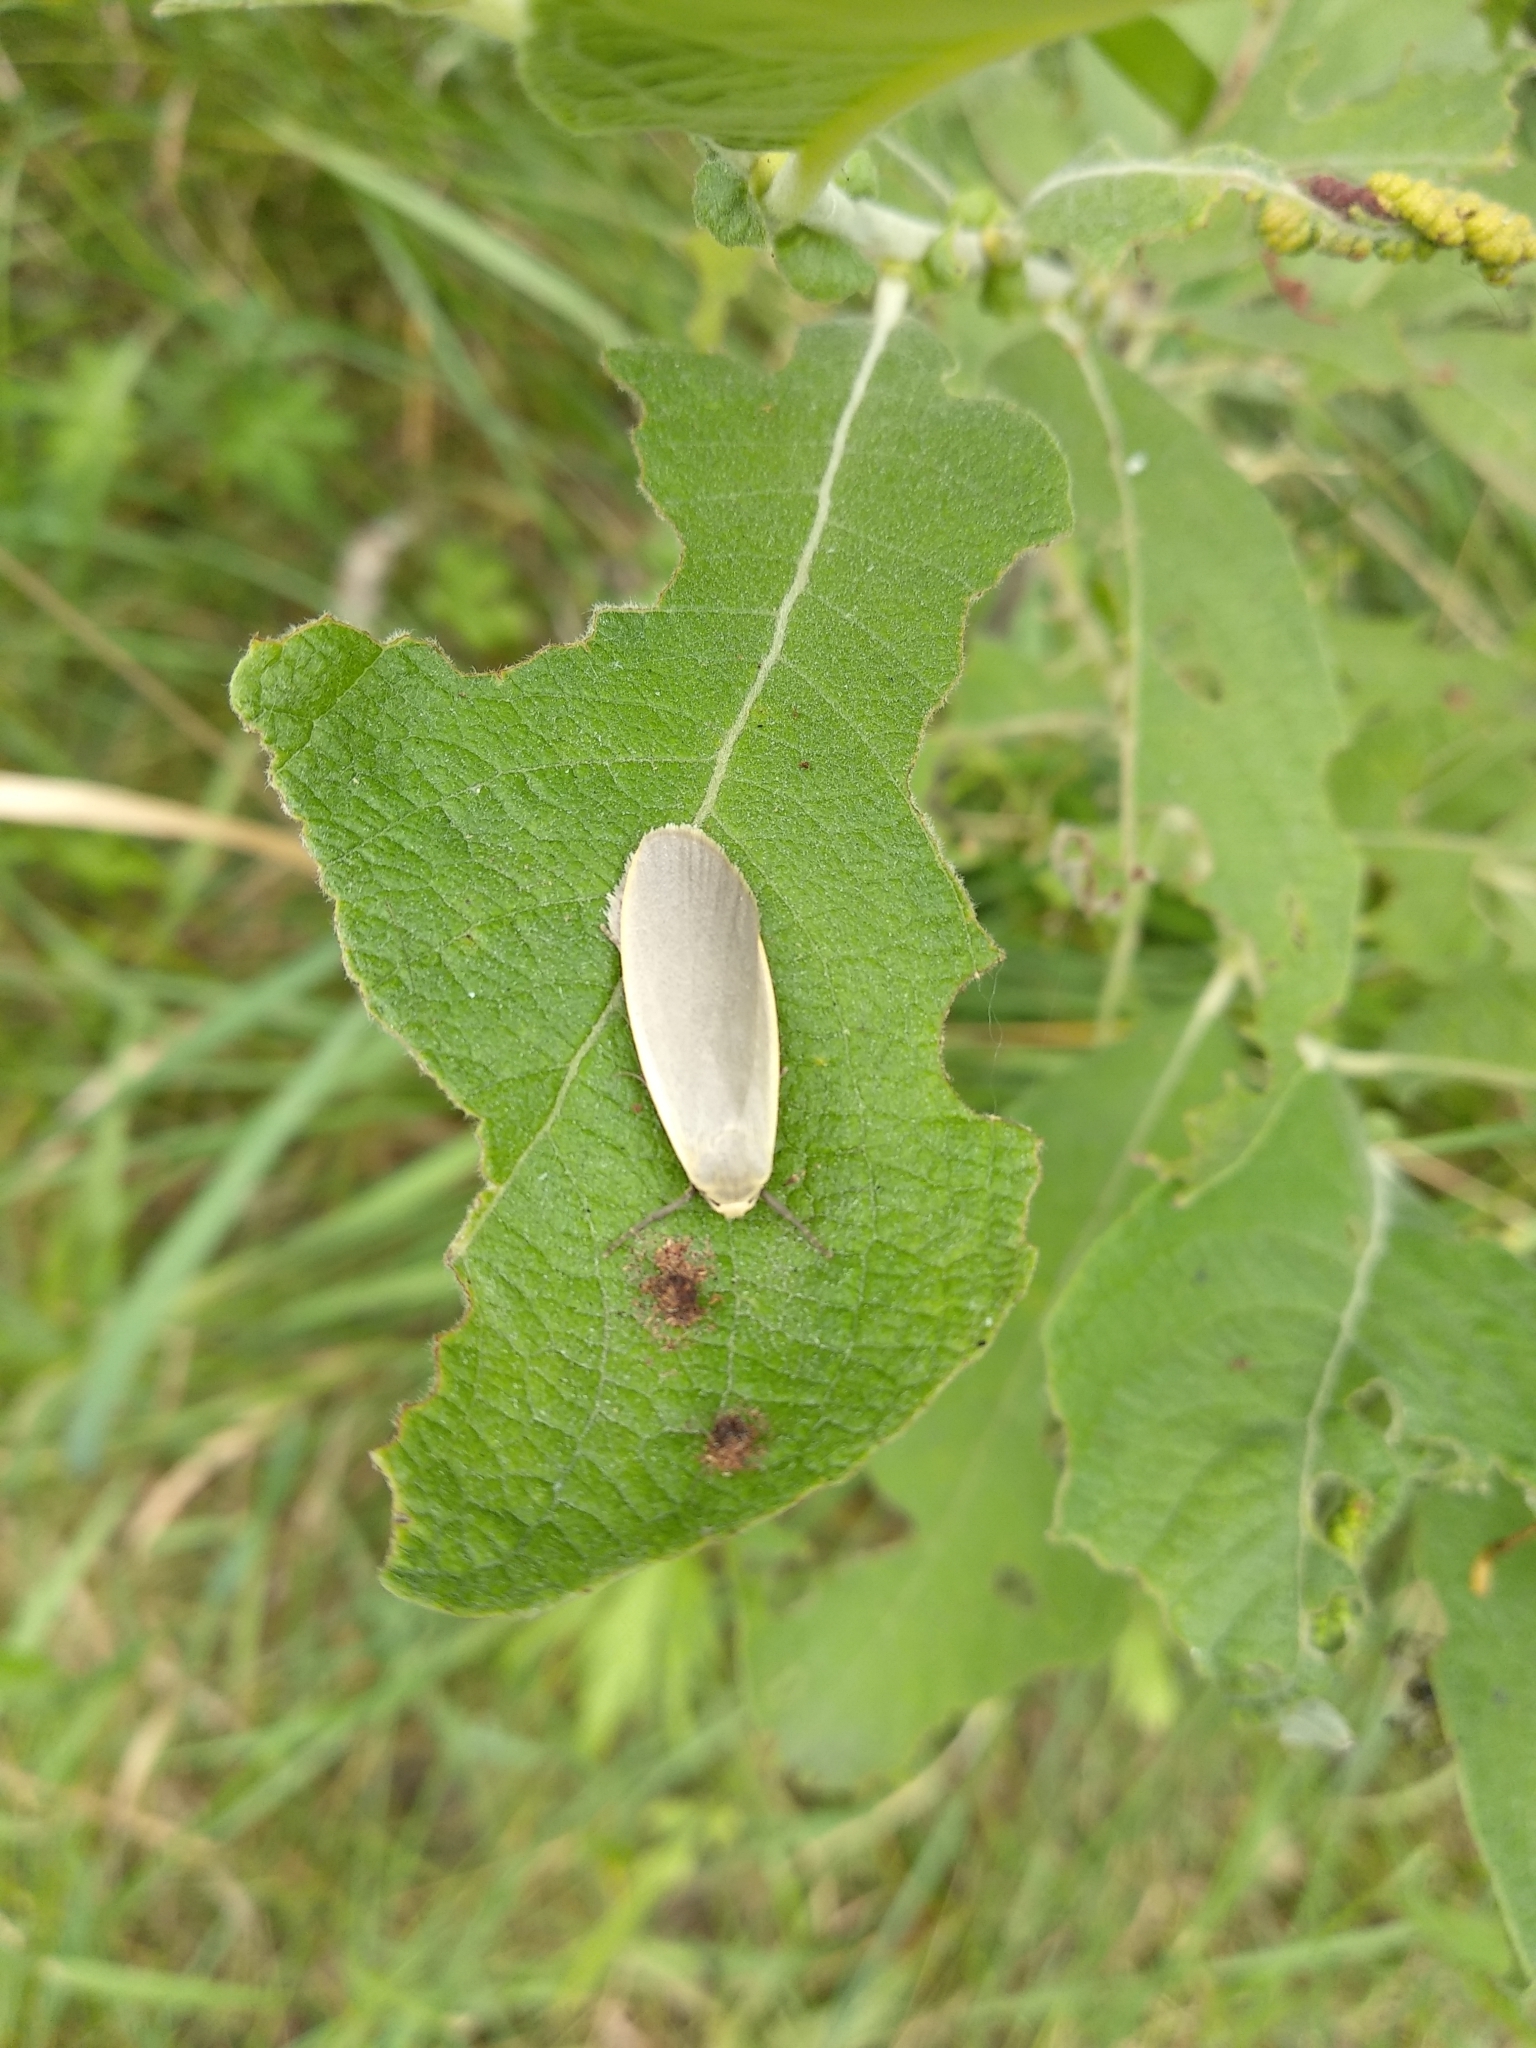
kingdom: Animalia
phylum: Arthropoda
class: Insecta
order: Lepidoptera
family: Erebidae
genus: Collita
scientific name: Collita griseola
